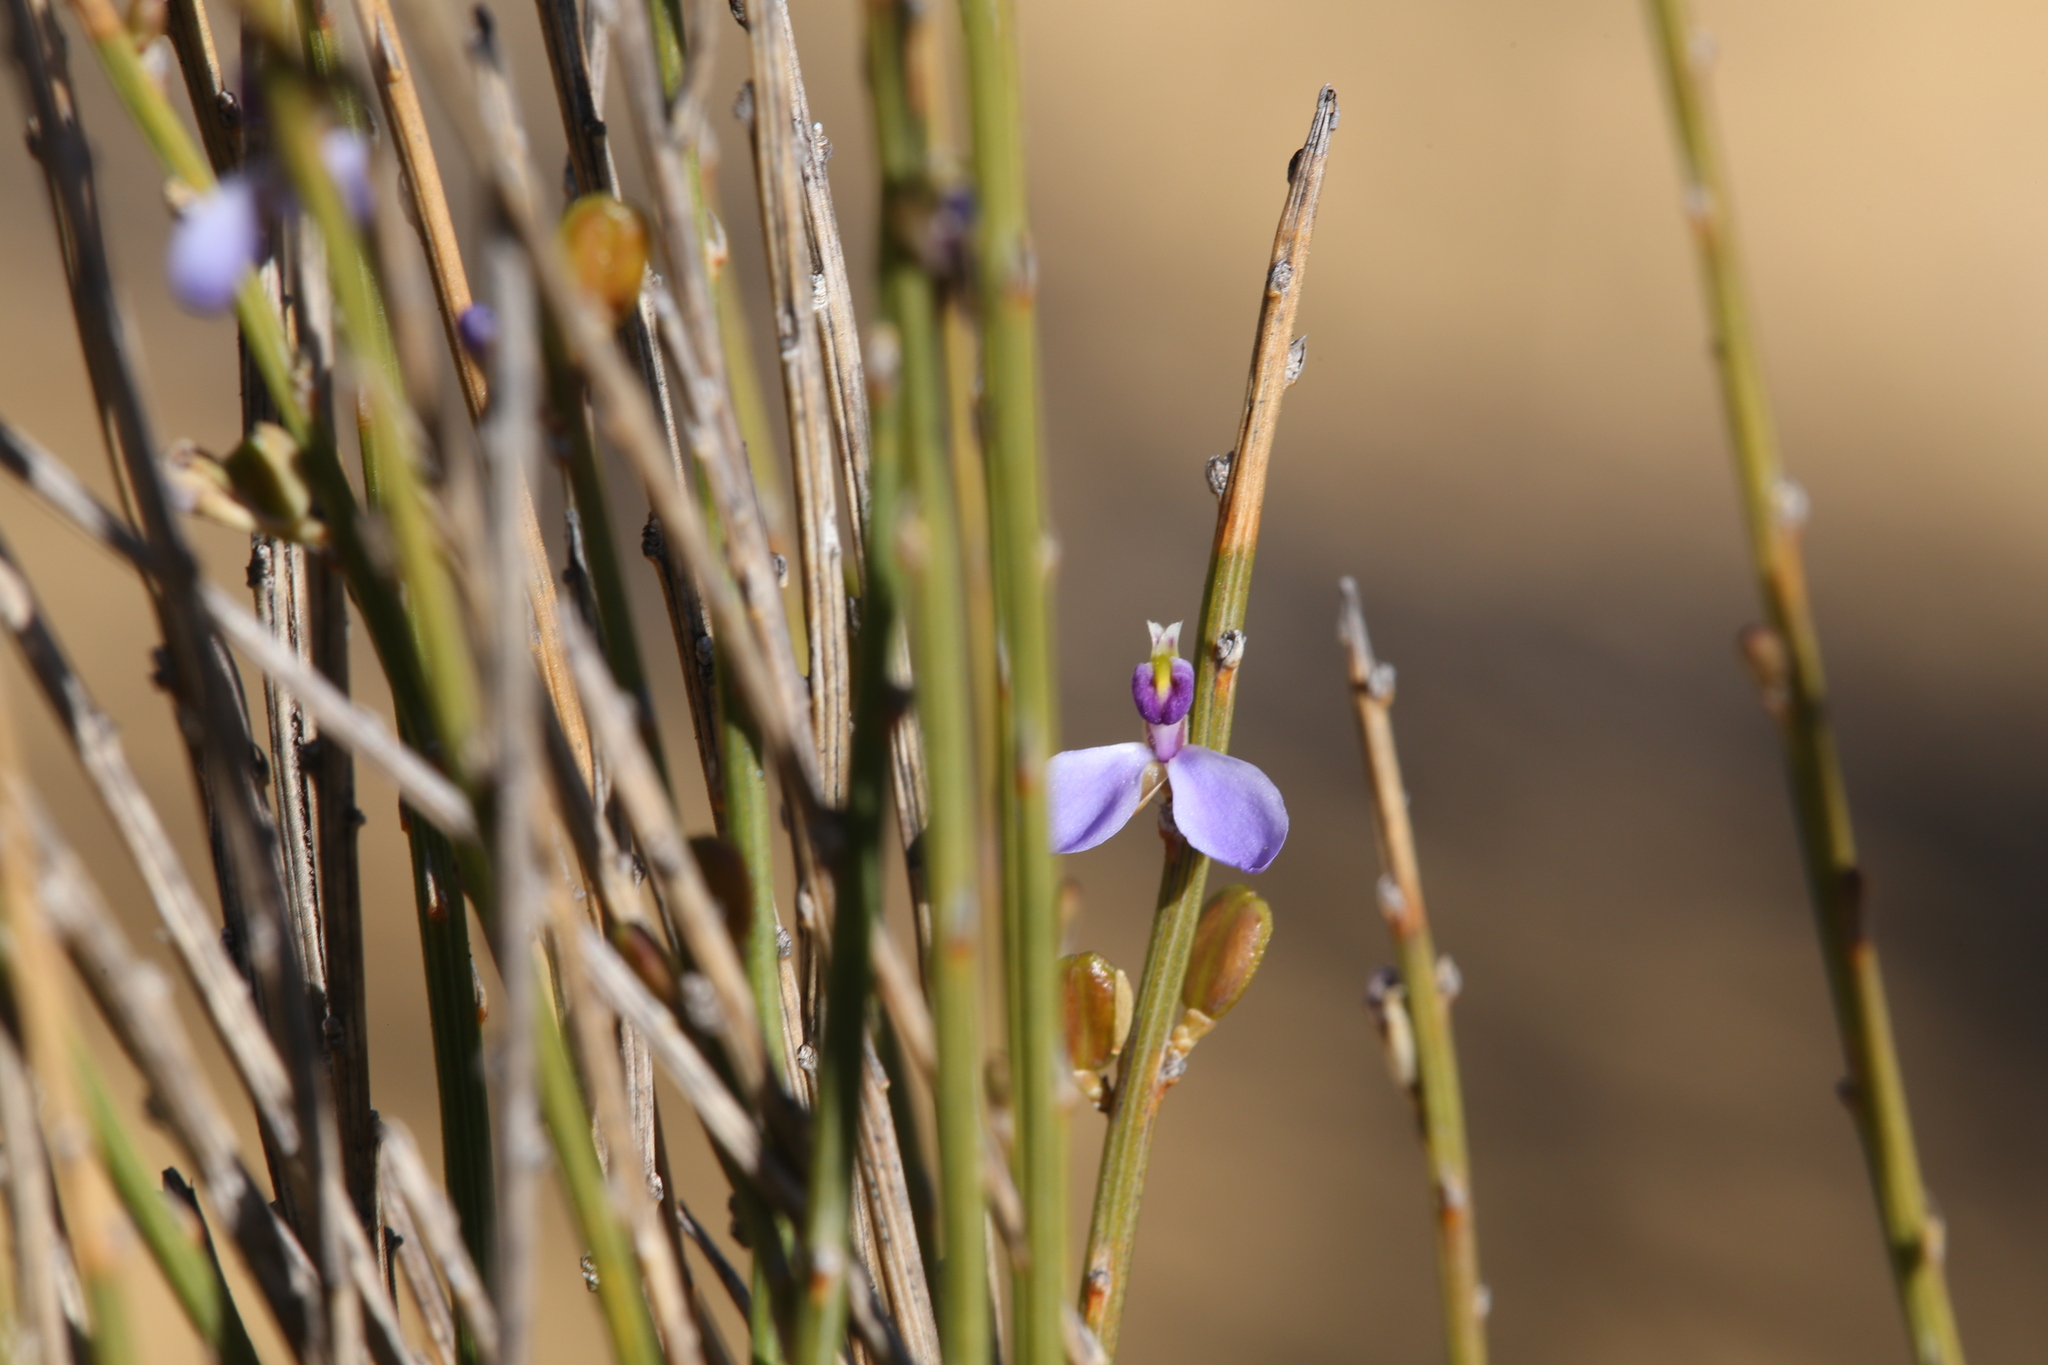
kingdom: Plantae
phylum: Tracheophyta
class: Magnoliopsida
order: Fabales
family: Polygalaceae
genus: Comesperma
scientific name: Comesperma scoparium
